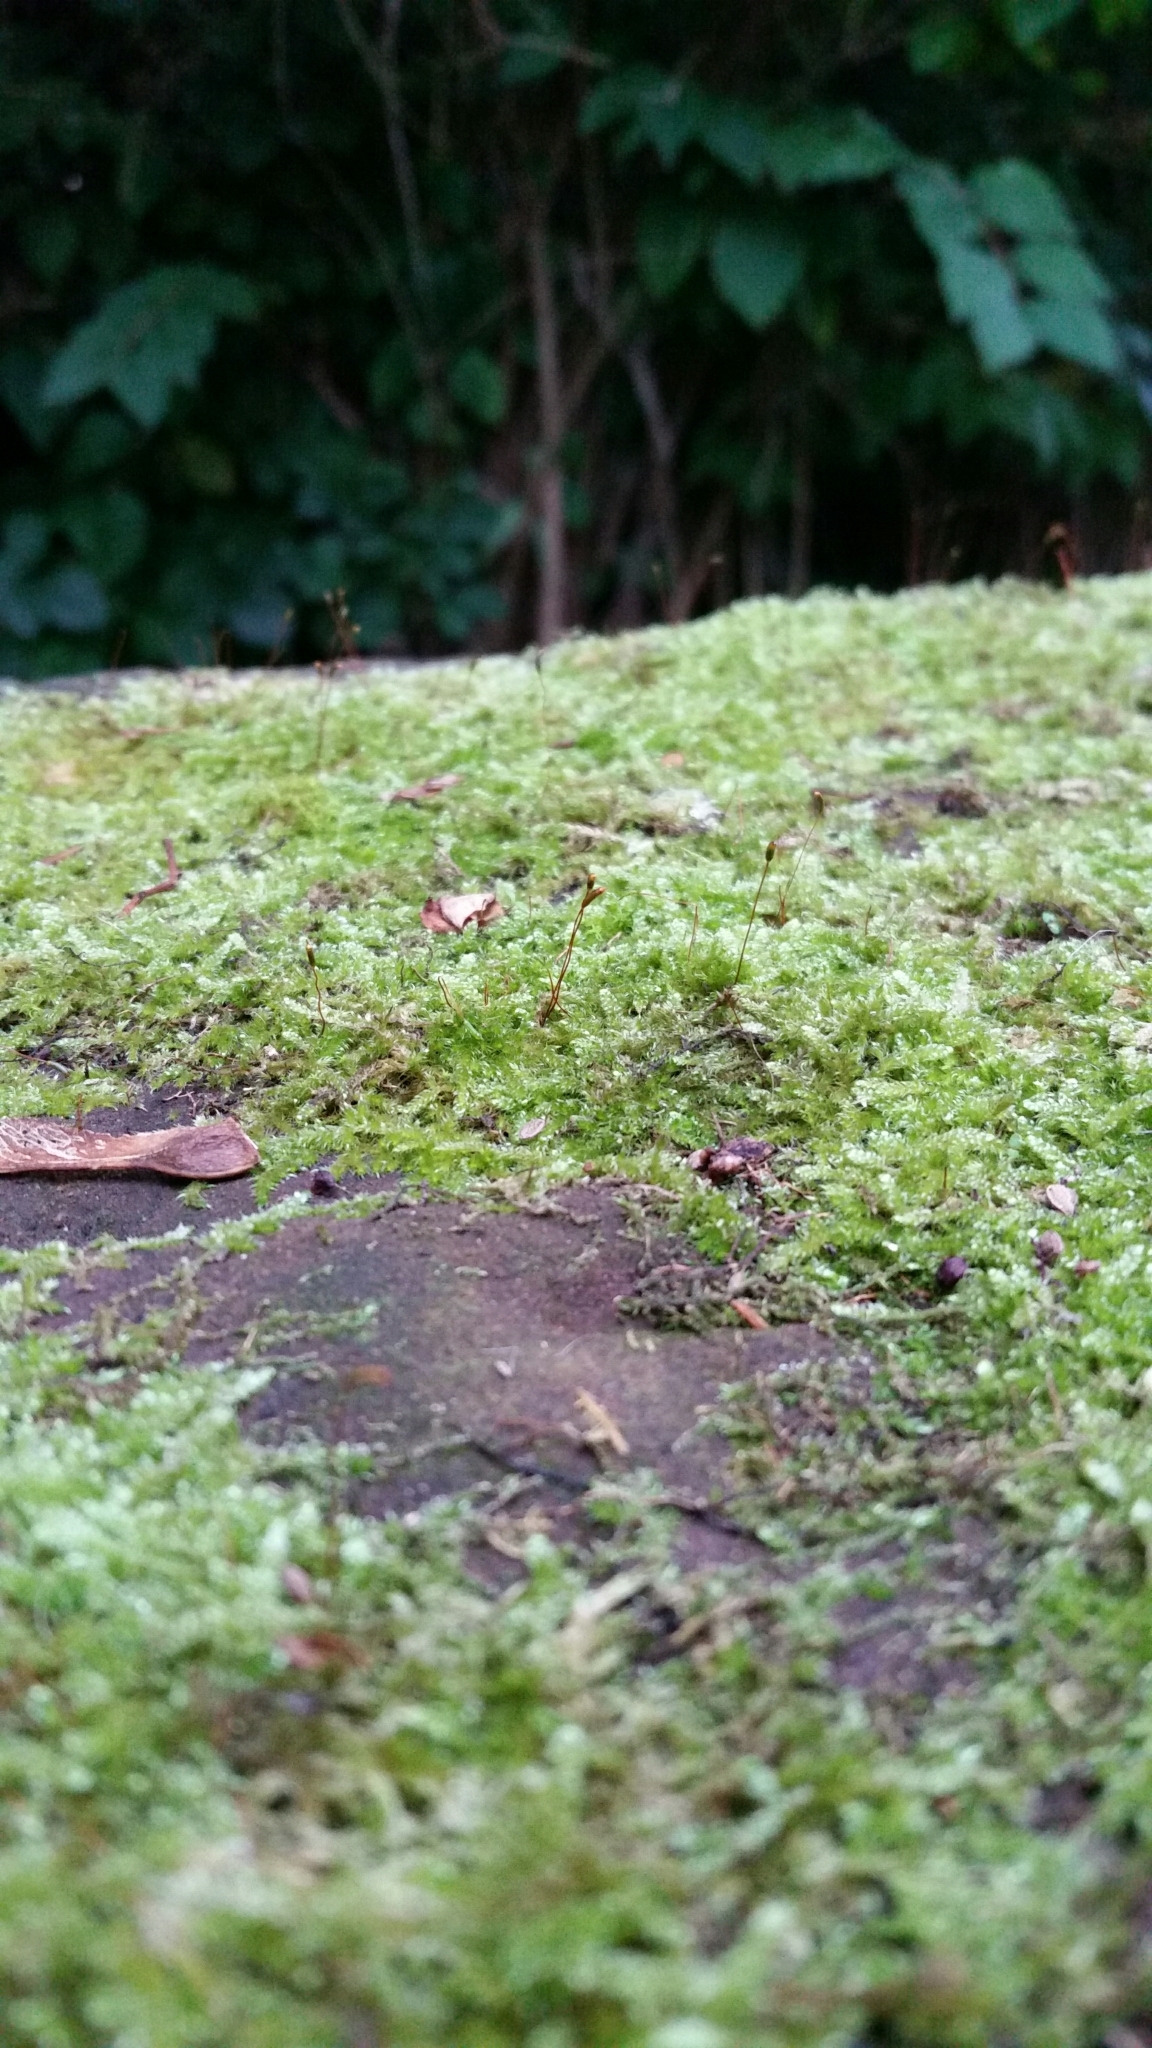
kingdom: Plantae
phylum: Bryophyta
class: Bryopsida
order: Hypnales
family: Hypnaceae
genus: Hypnum
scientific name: Hypnum cupressiforme
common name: Cypress-leaved plait-moss
